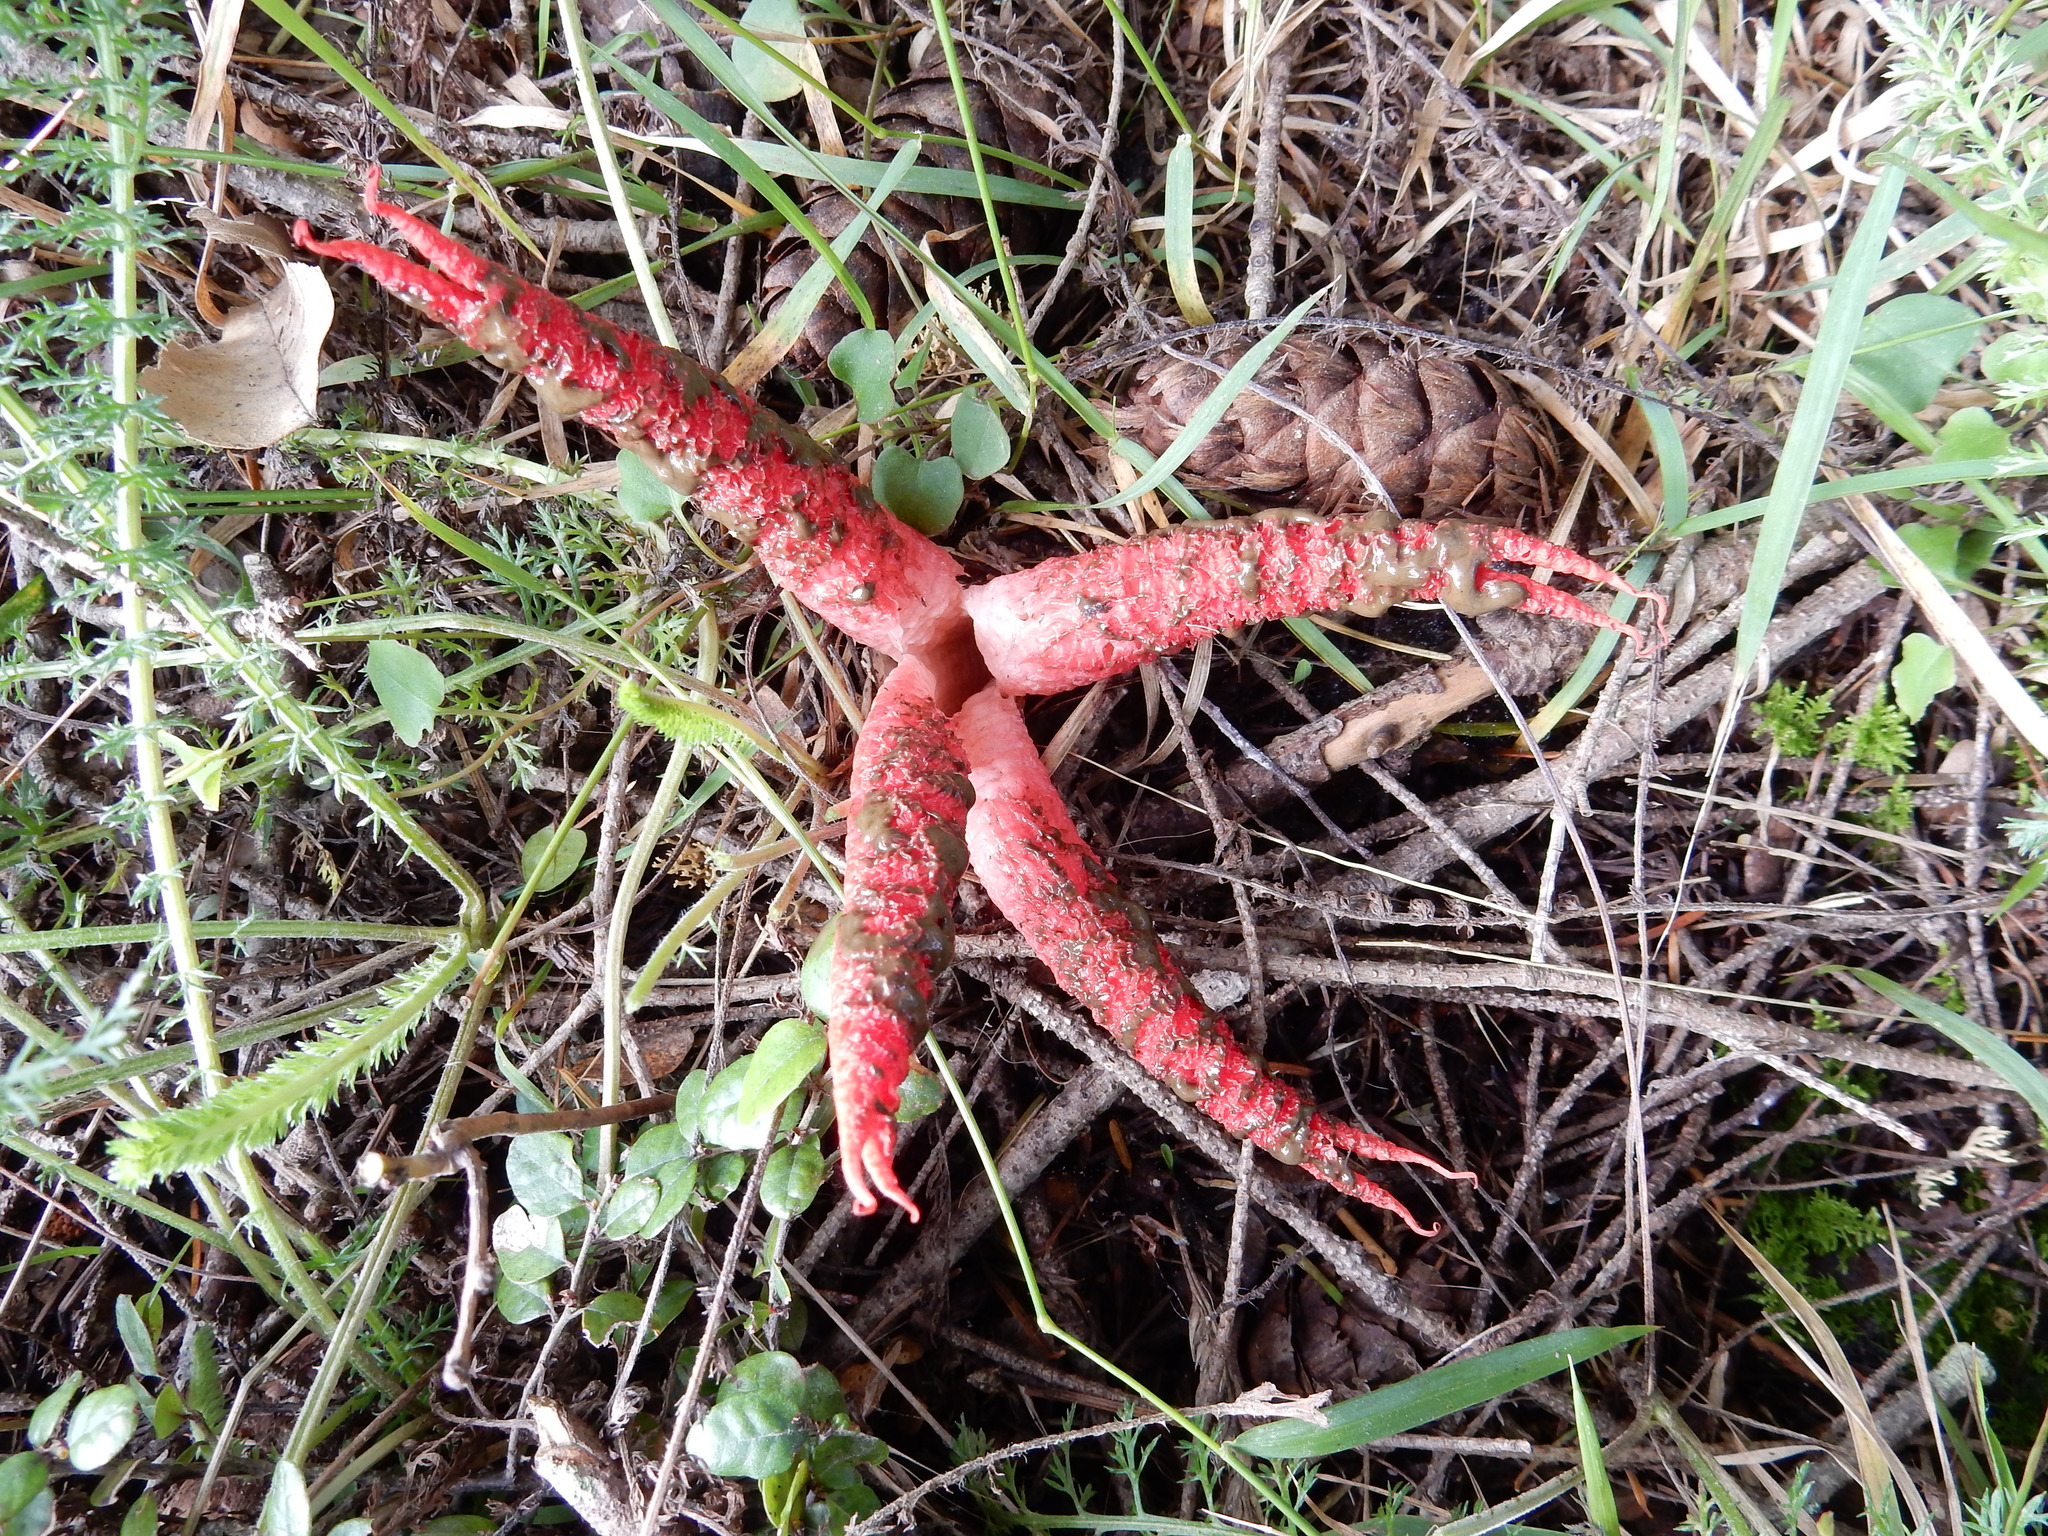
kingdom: Fungi
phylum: Basidiomycota
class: Agaricomycetes
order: Phallales
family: Phallaceae
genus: Clathrus
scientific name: Clathrus archeri
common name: Devil's fingers
